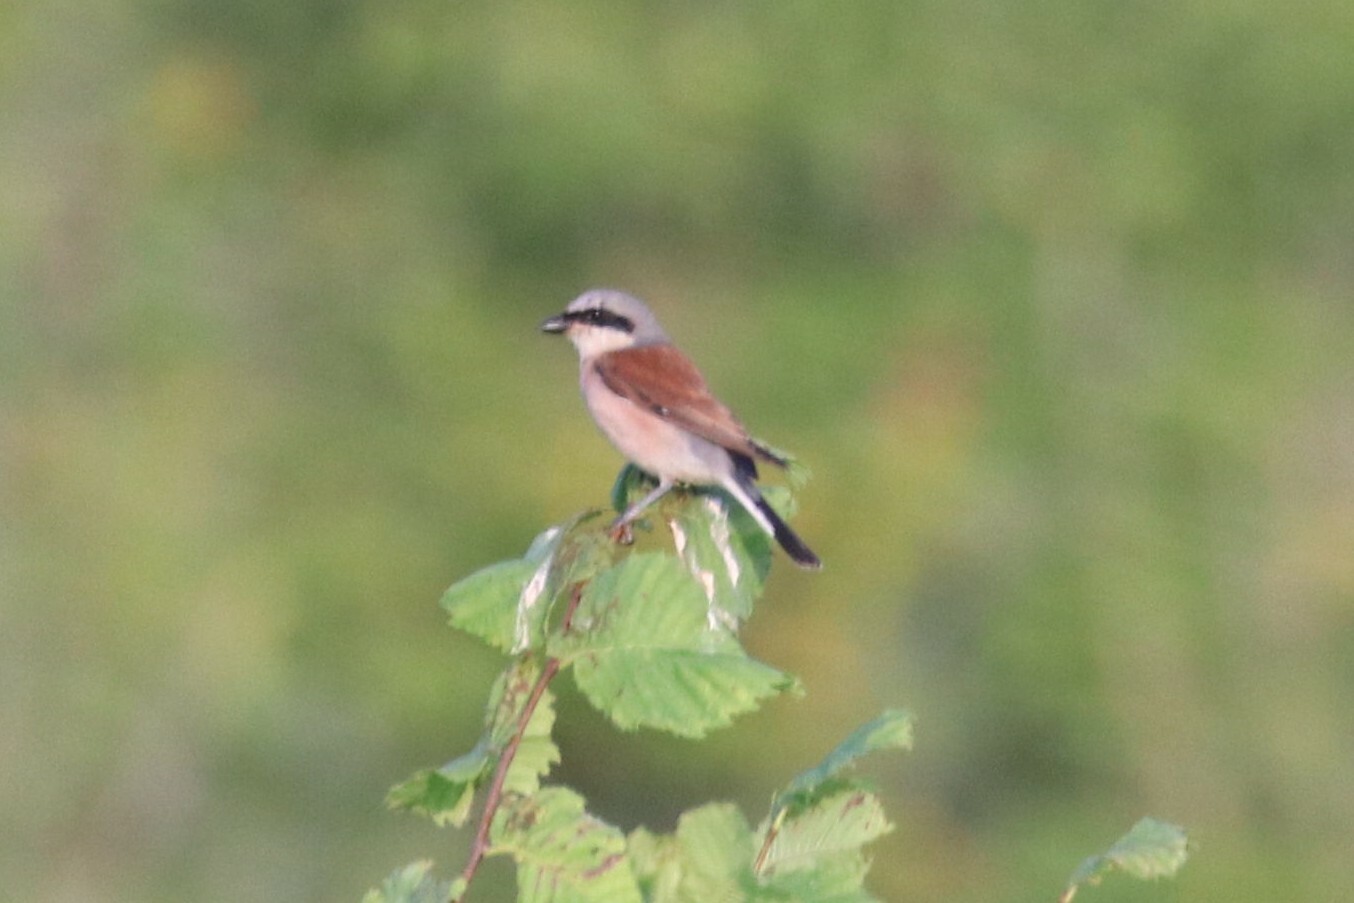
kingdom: Animalia
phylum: Chordata
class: Aves
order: Passeriformes
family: Laniidae
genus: Lanius
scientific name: Lanius collurio
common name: Red-backed shrike
